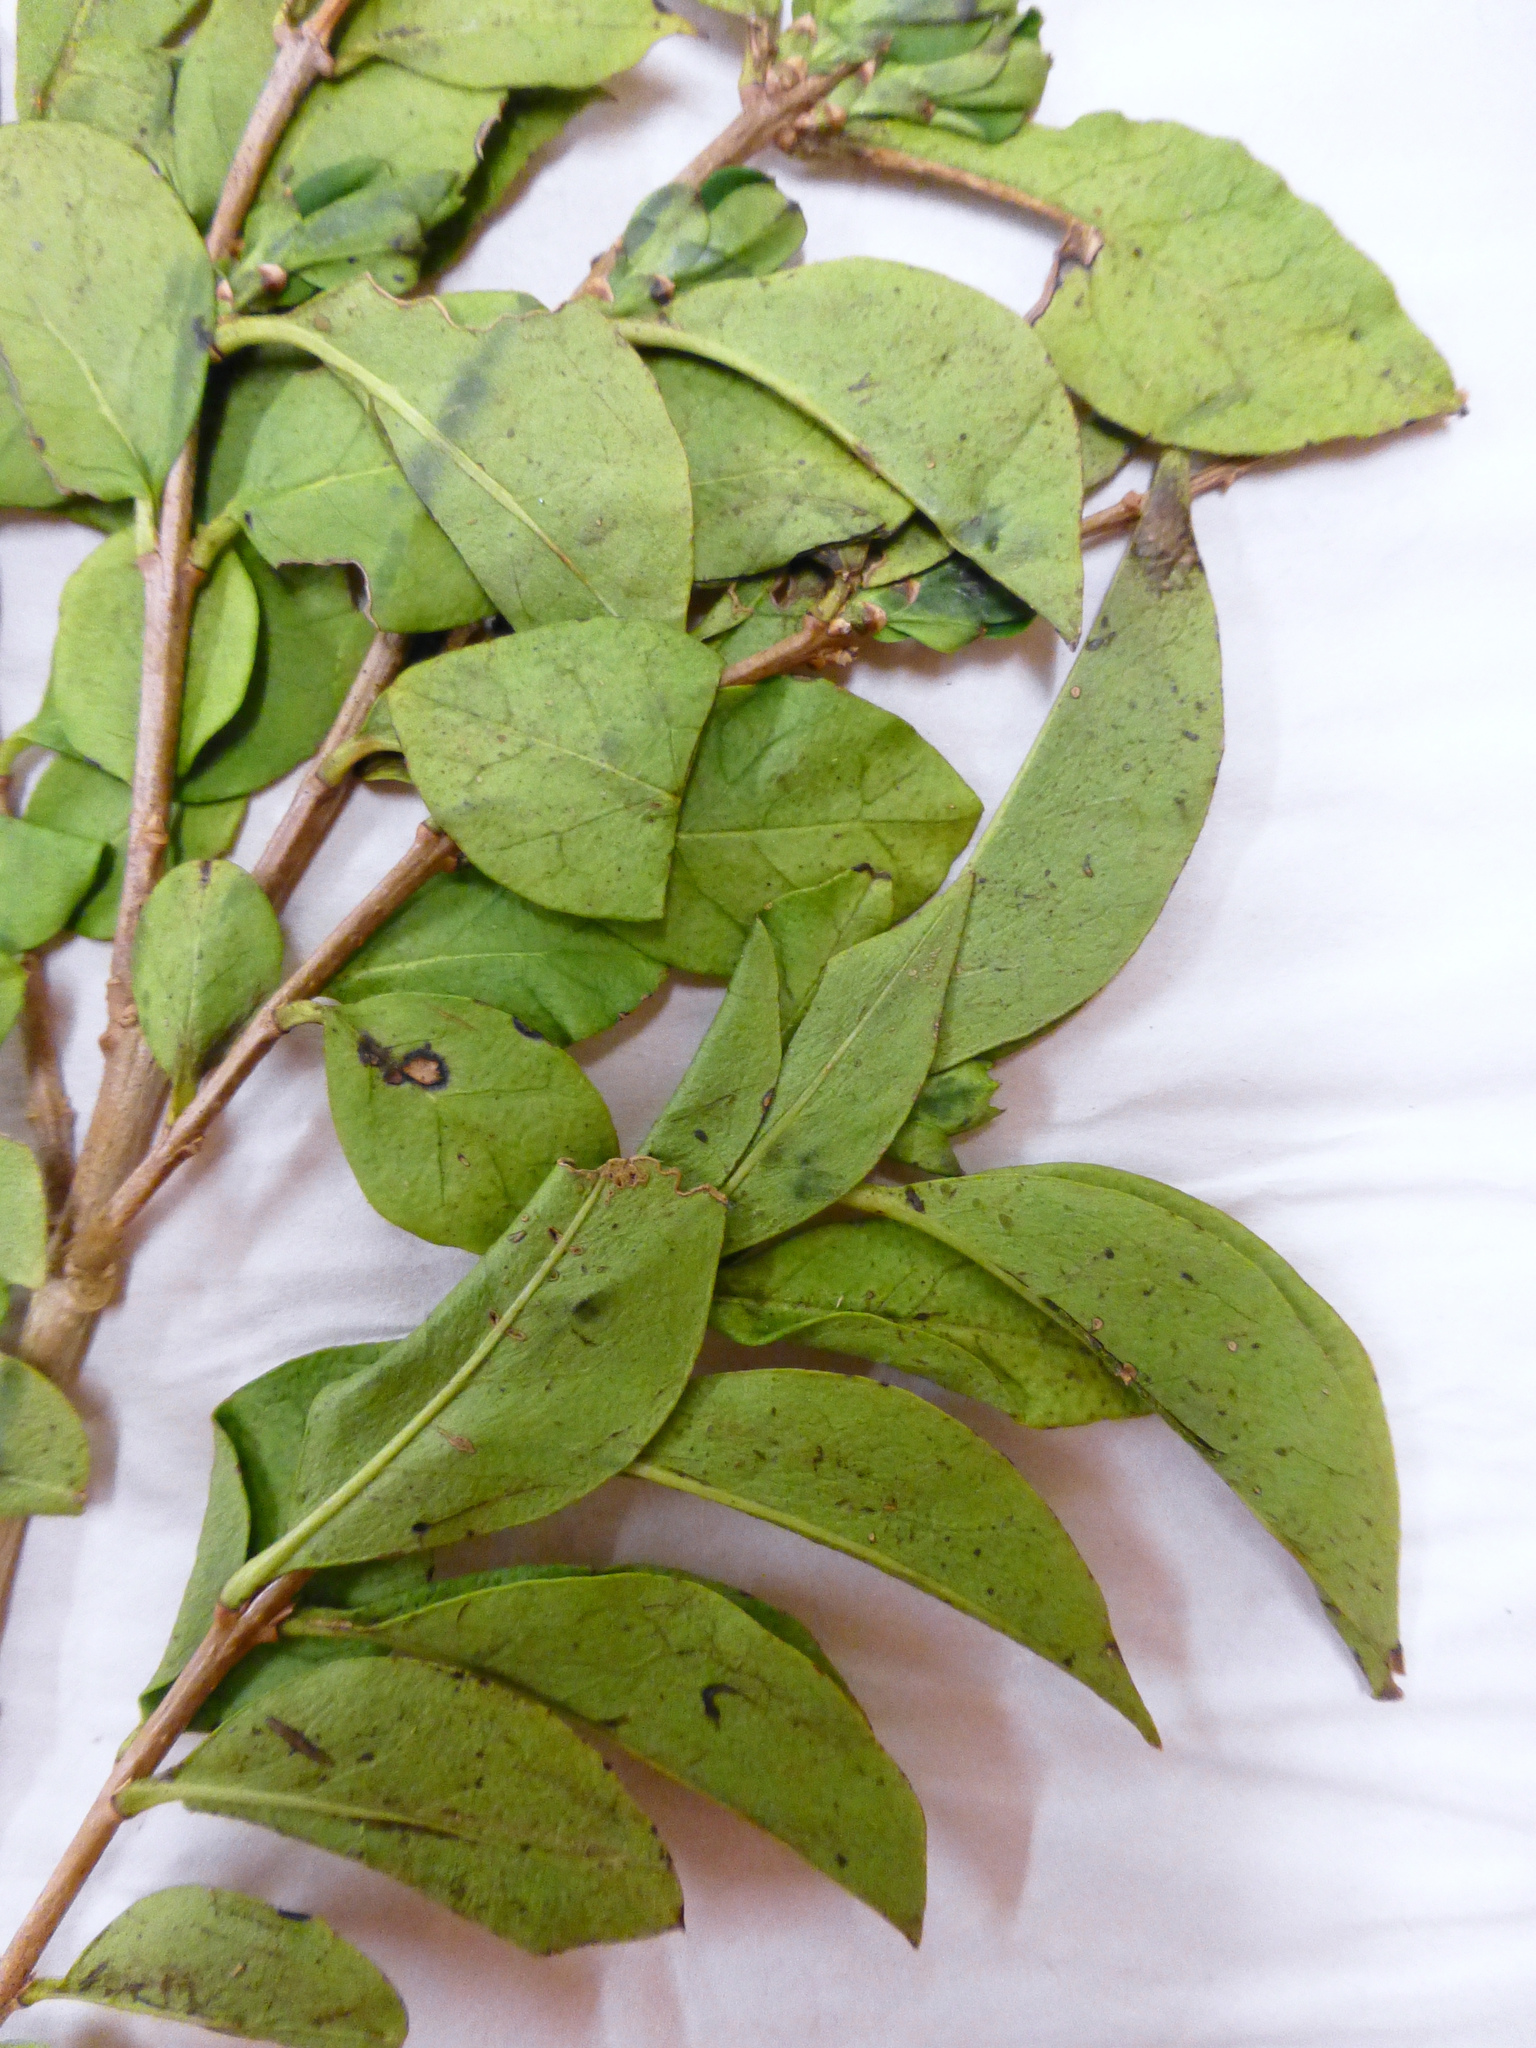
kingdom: Plantae
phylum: Tracheophyta
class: Magnoliopsida
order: Lamiales
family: Oleaceae
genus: Ligustrum
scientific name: Ligustrum
